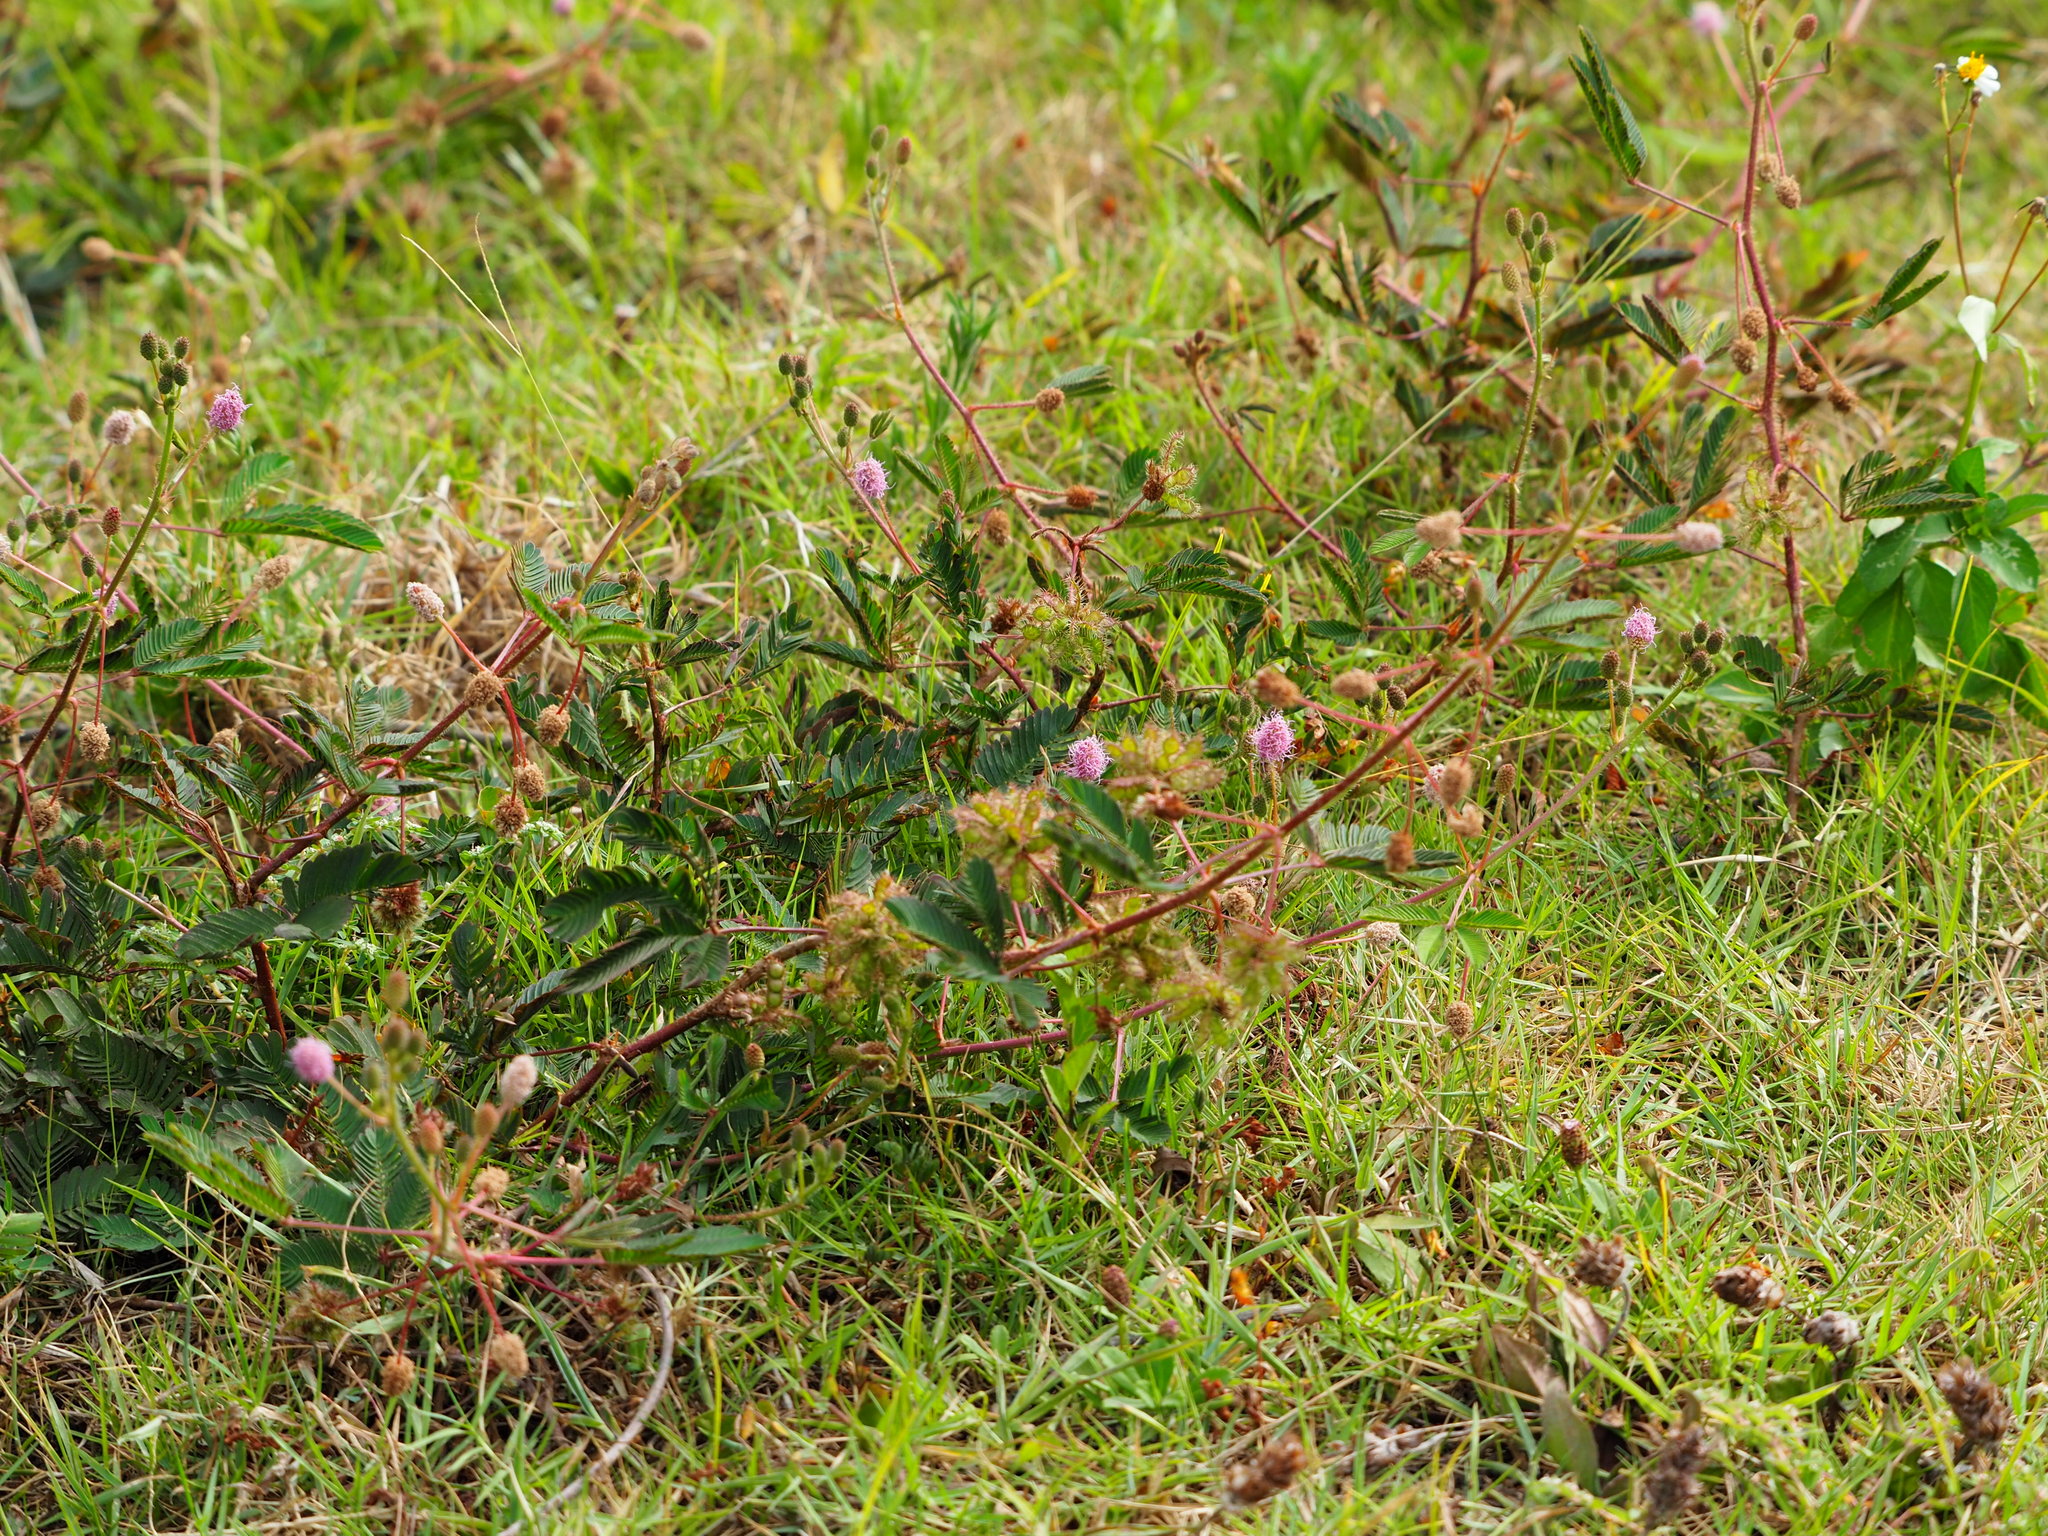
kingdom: Plantae
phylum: Tracheophyta
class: Magnoliopsida
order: Fabales
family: Fabaceae
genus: Mimosa
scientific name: Mimosa pudica
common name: Sensitive plant
